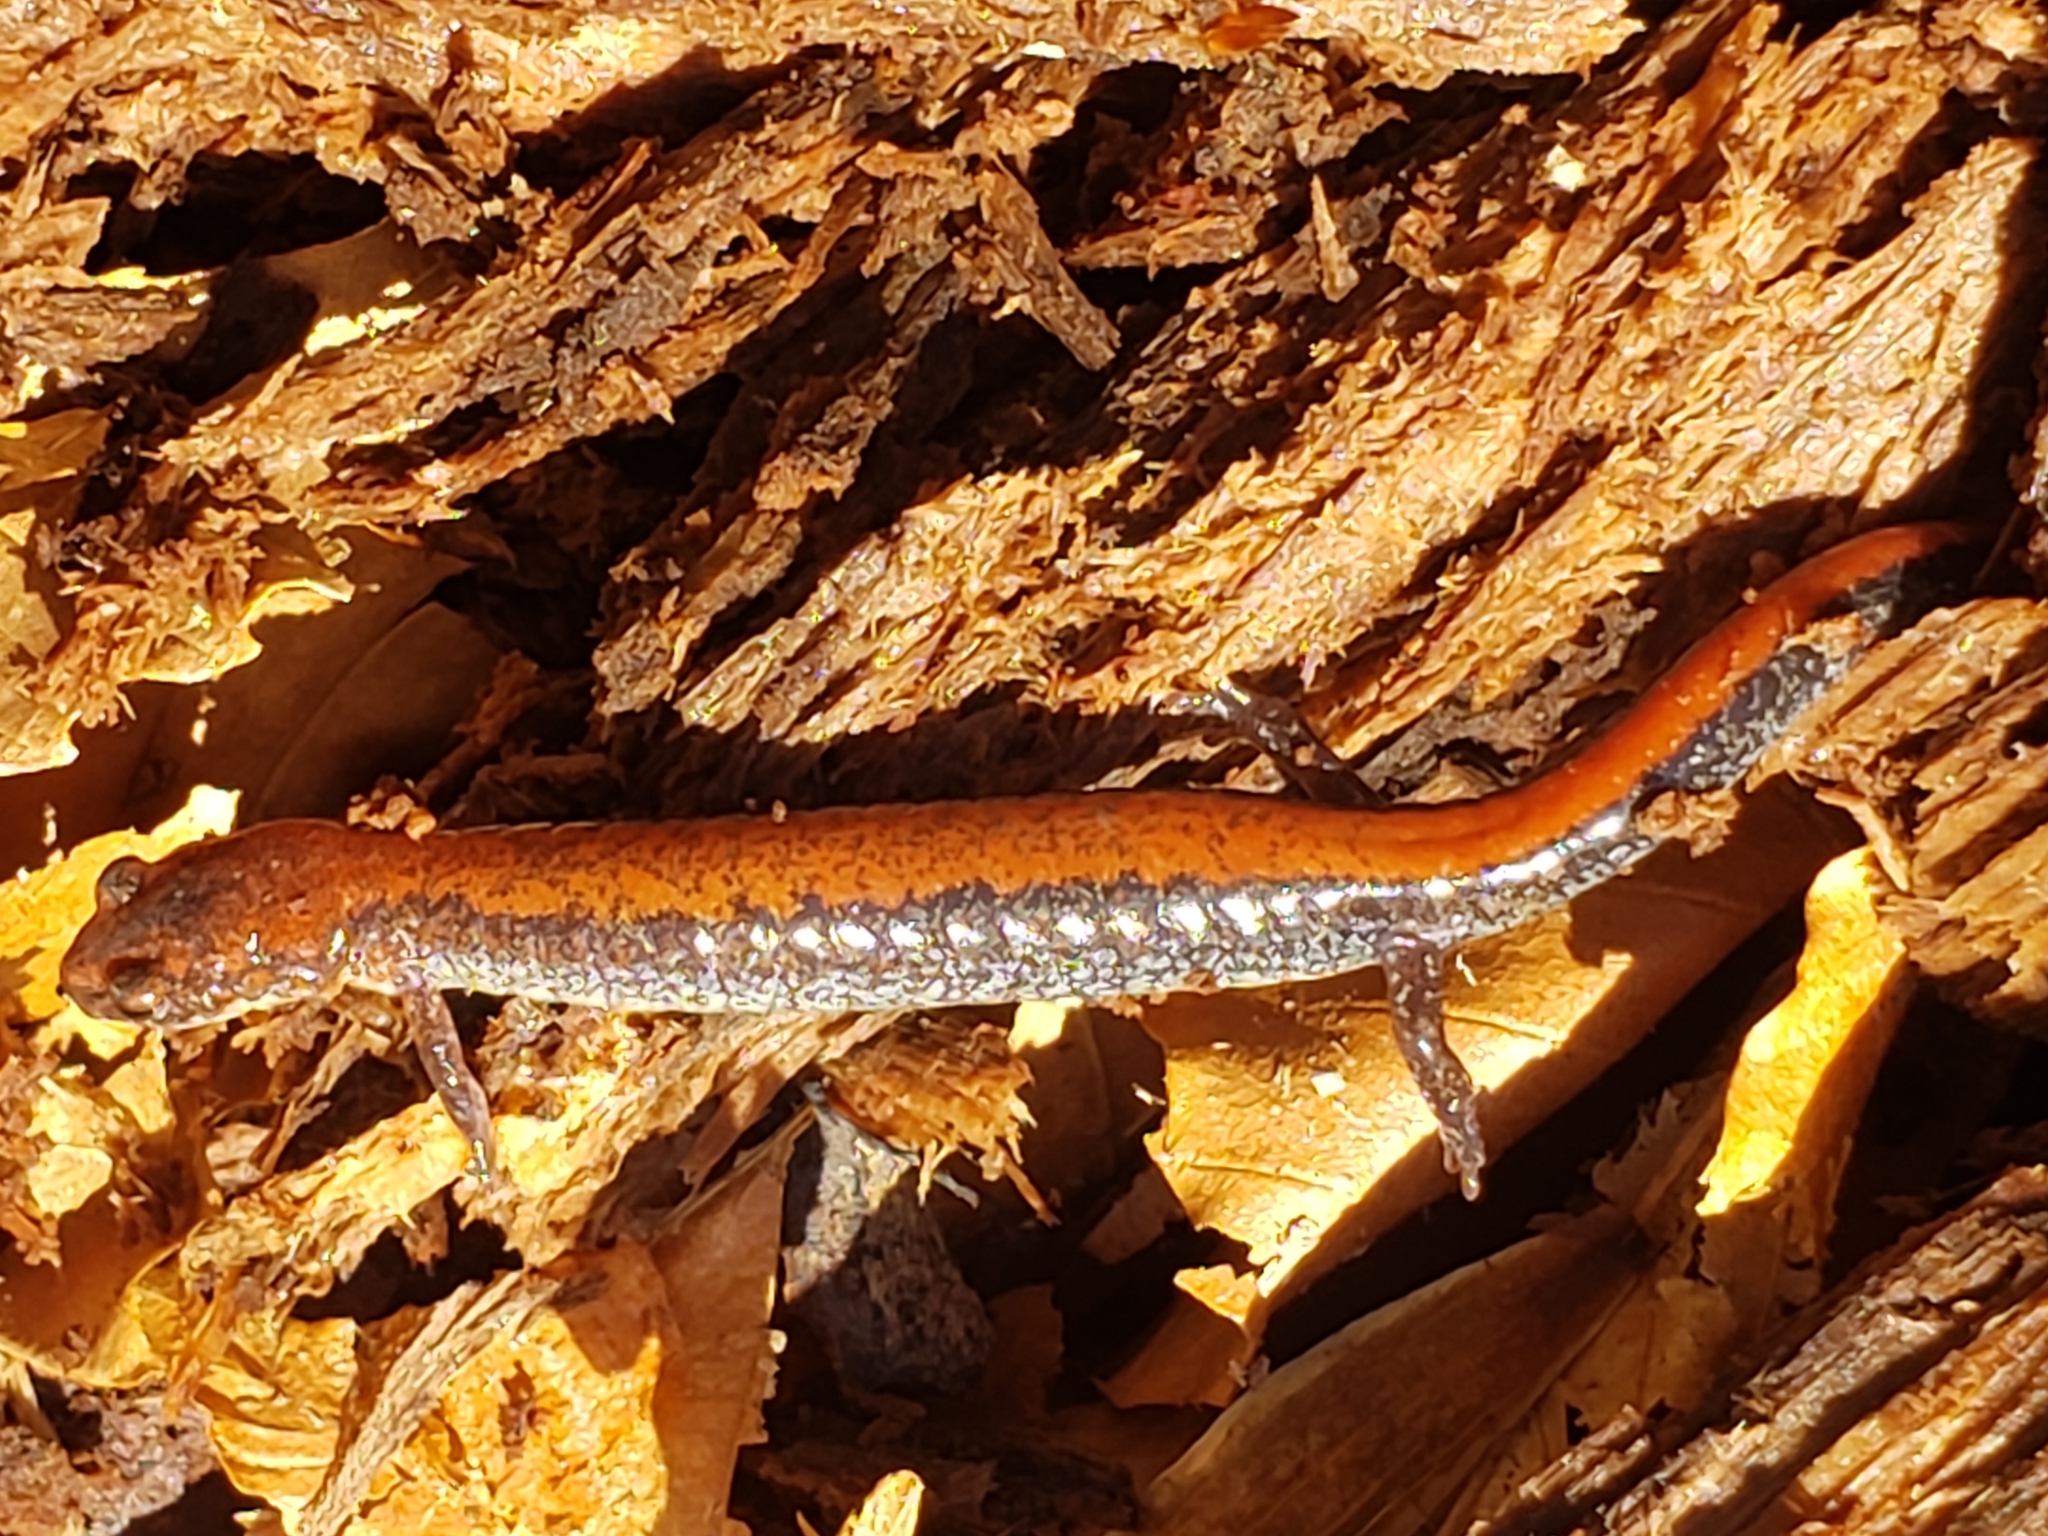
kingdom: Animalia
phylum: Chordata
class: Amphibia
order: Caudata
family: Plethodontidae
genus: Plethodon
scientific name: Plethodon cinereus
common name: Redback salamander
